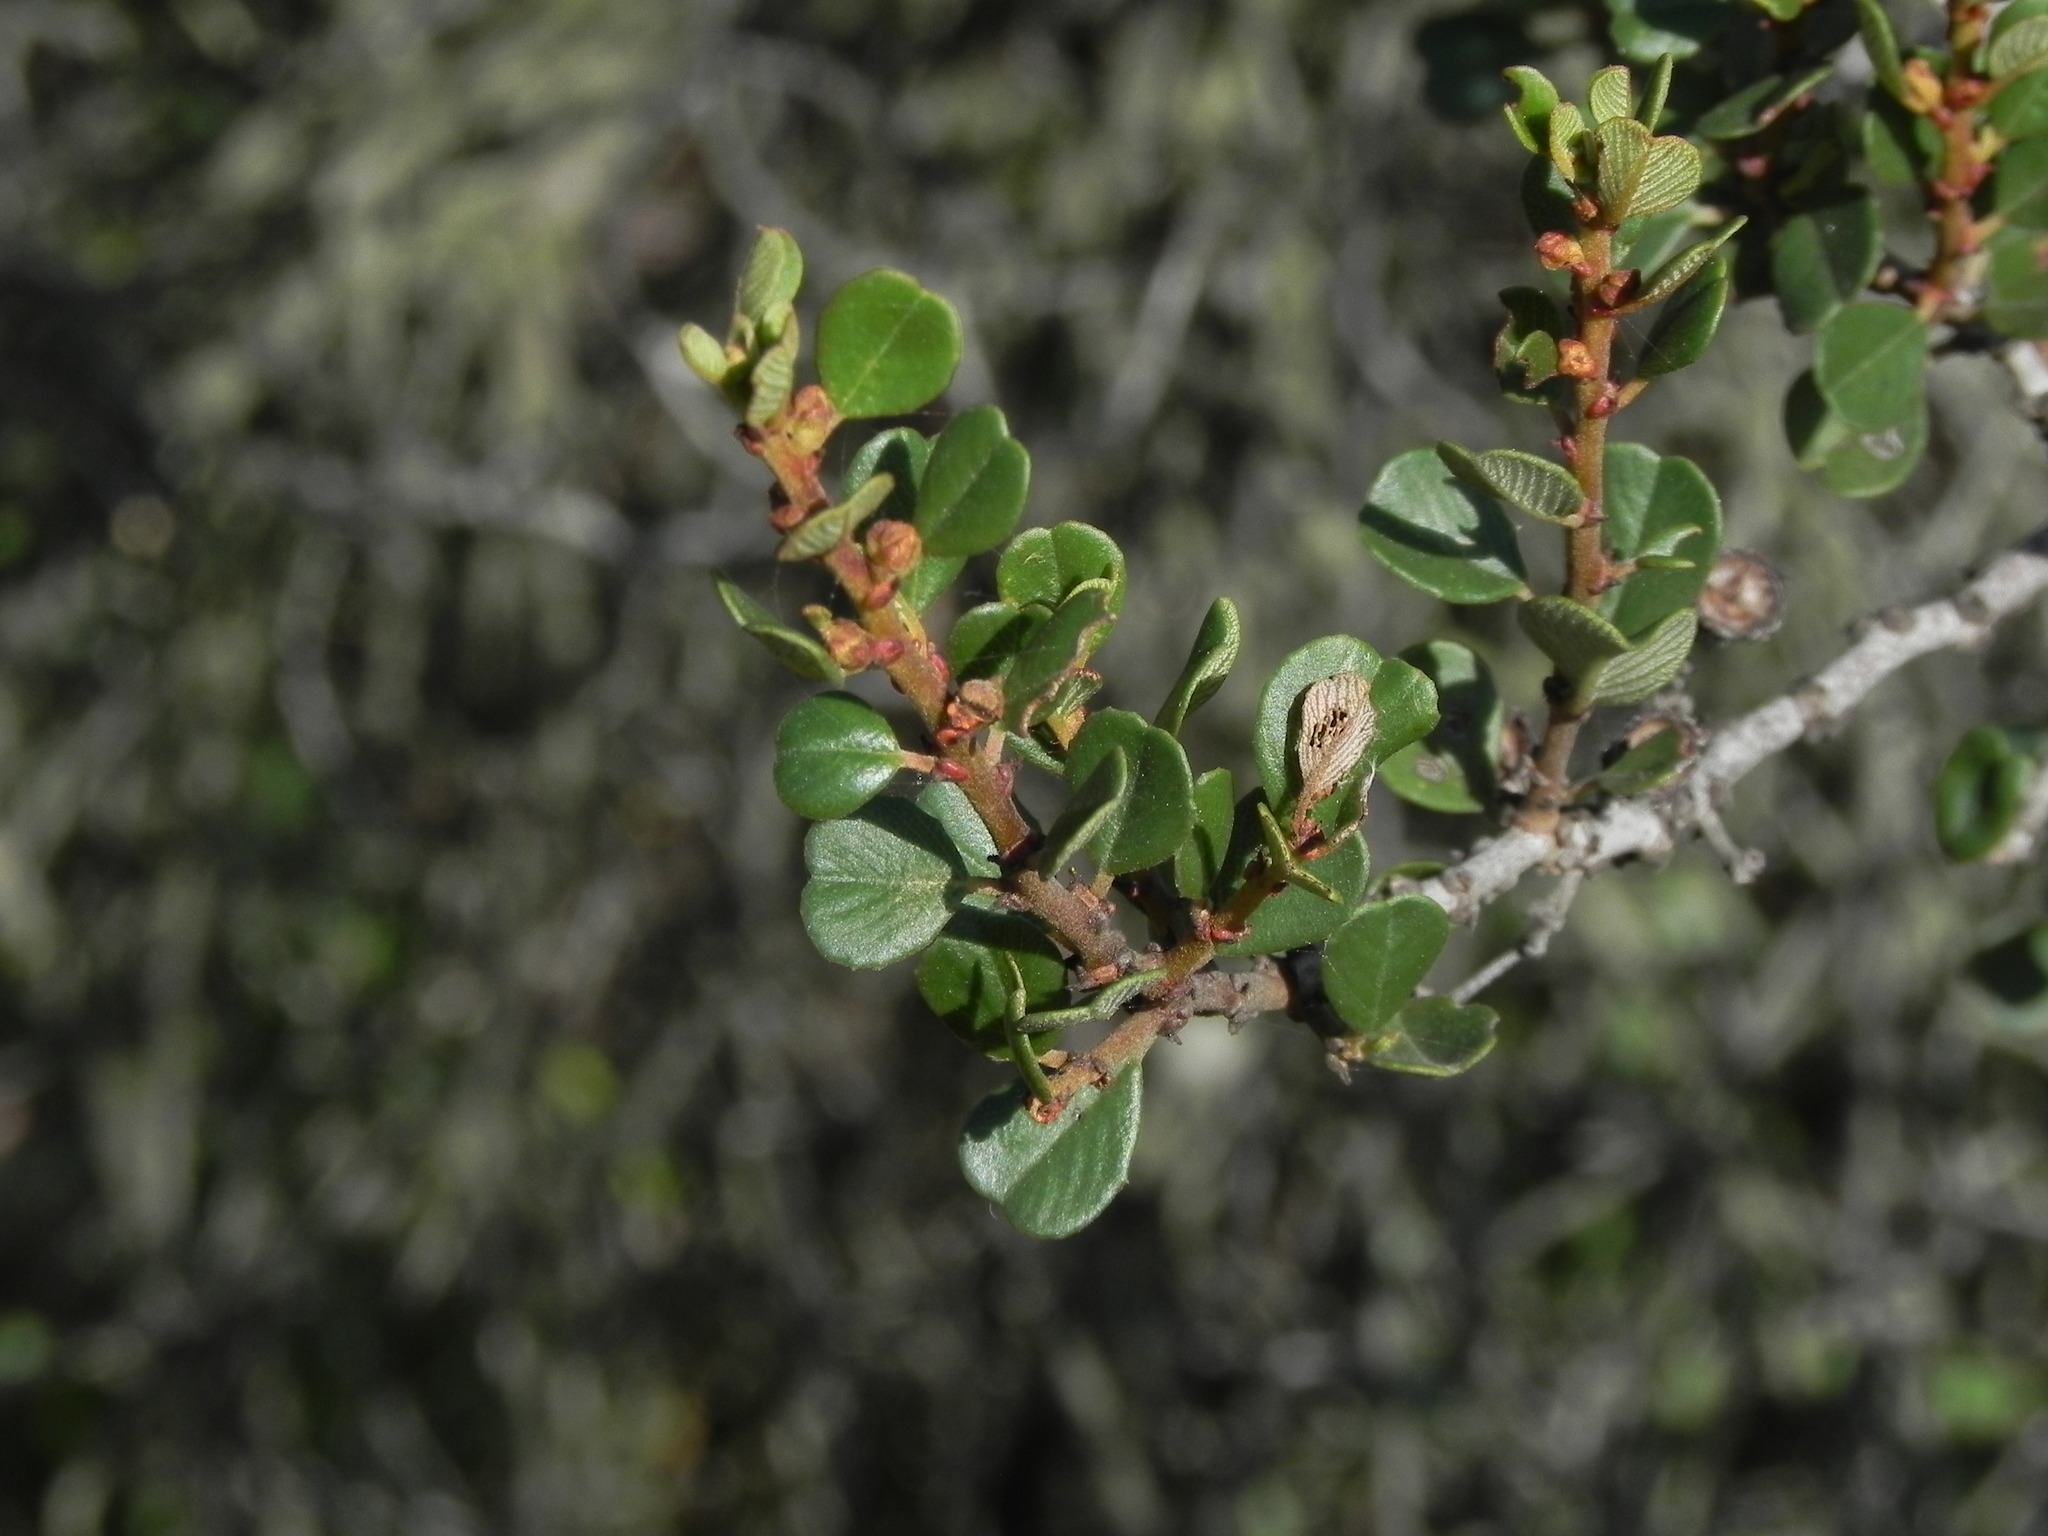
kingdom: Plantae
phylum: Tracheophyta
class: Magnoliopsida
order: Rosales
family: Rhamnaceae
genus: Ceanothus
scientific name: Ceanothus verrucosus
